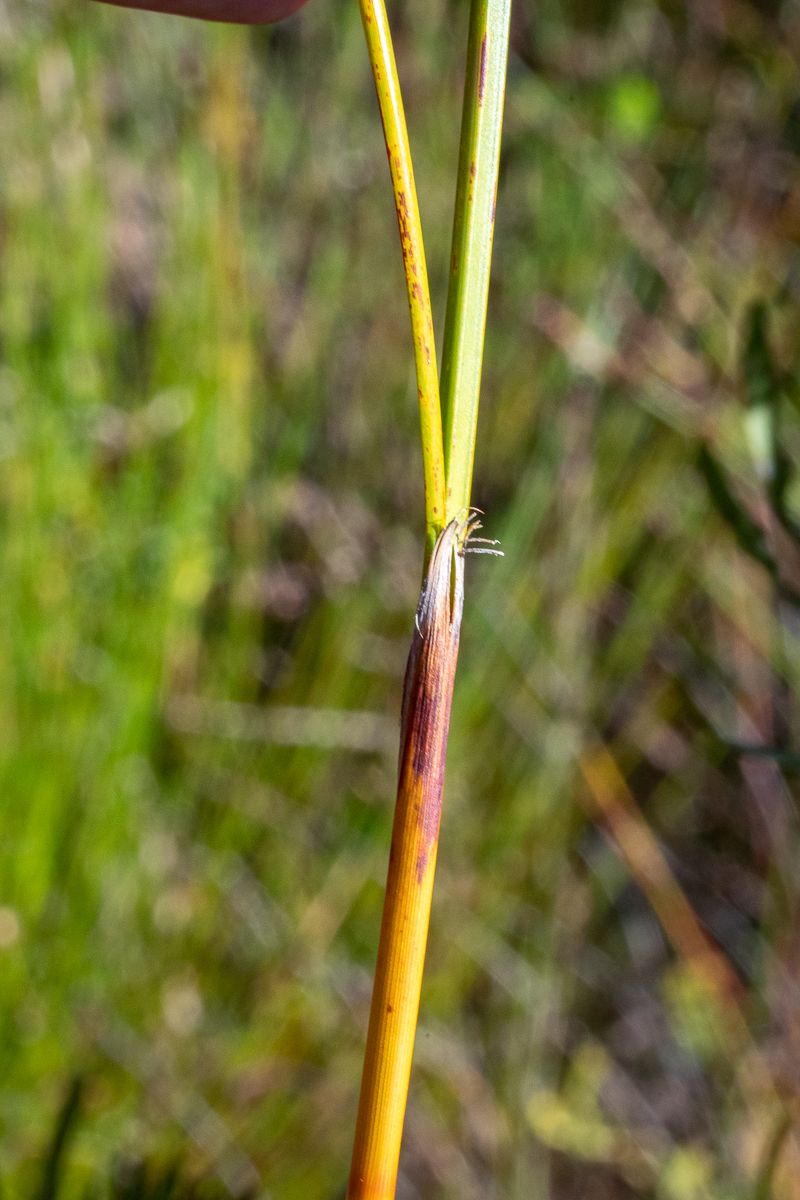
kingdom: Plantae
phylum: Tracheophyta
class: Liliopsida
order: Poales
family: Cyperaceae
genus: Tetraria
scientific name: Tetraria bromoides
